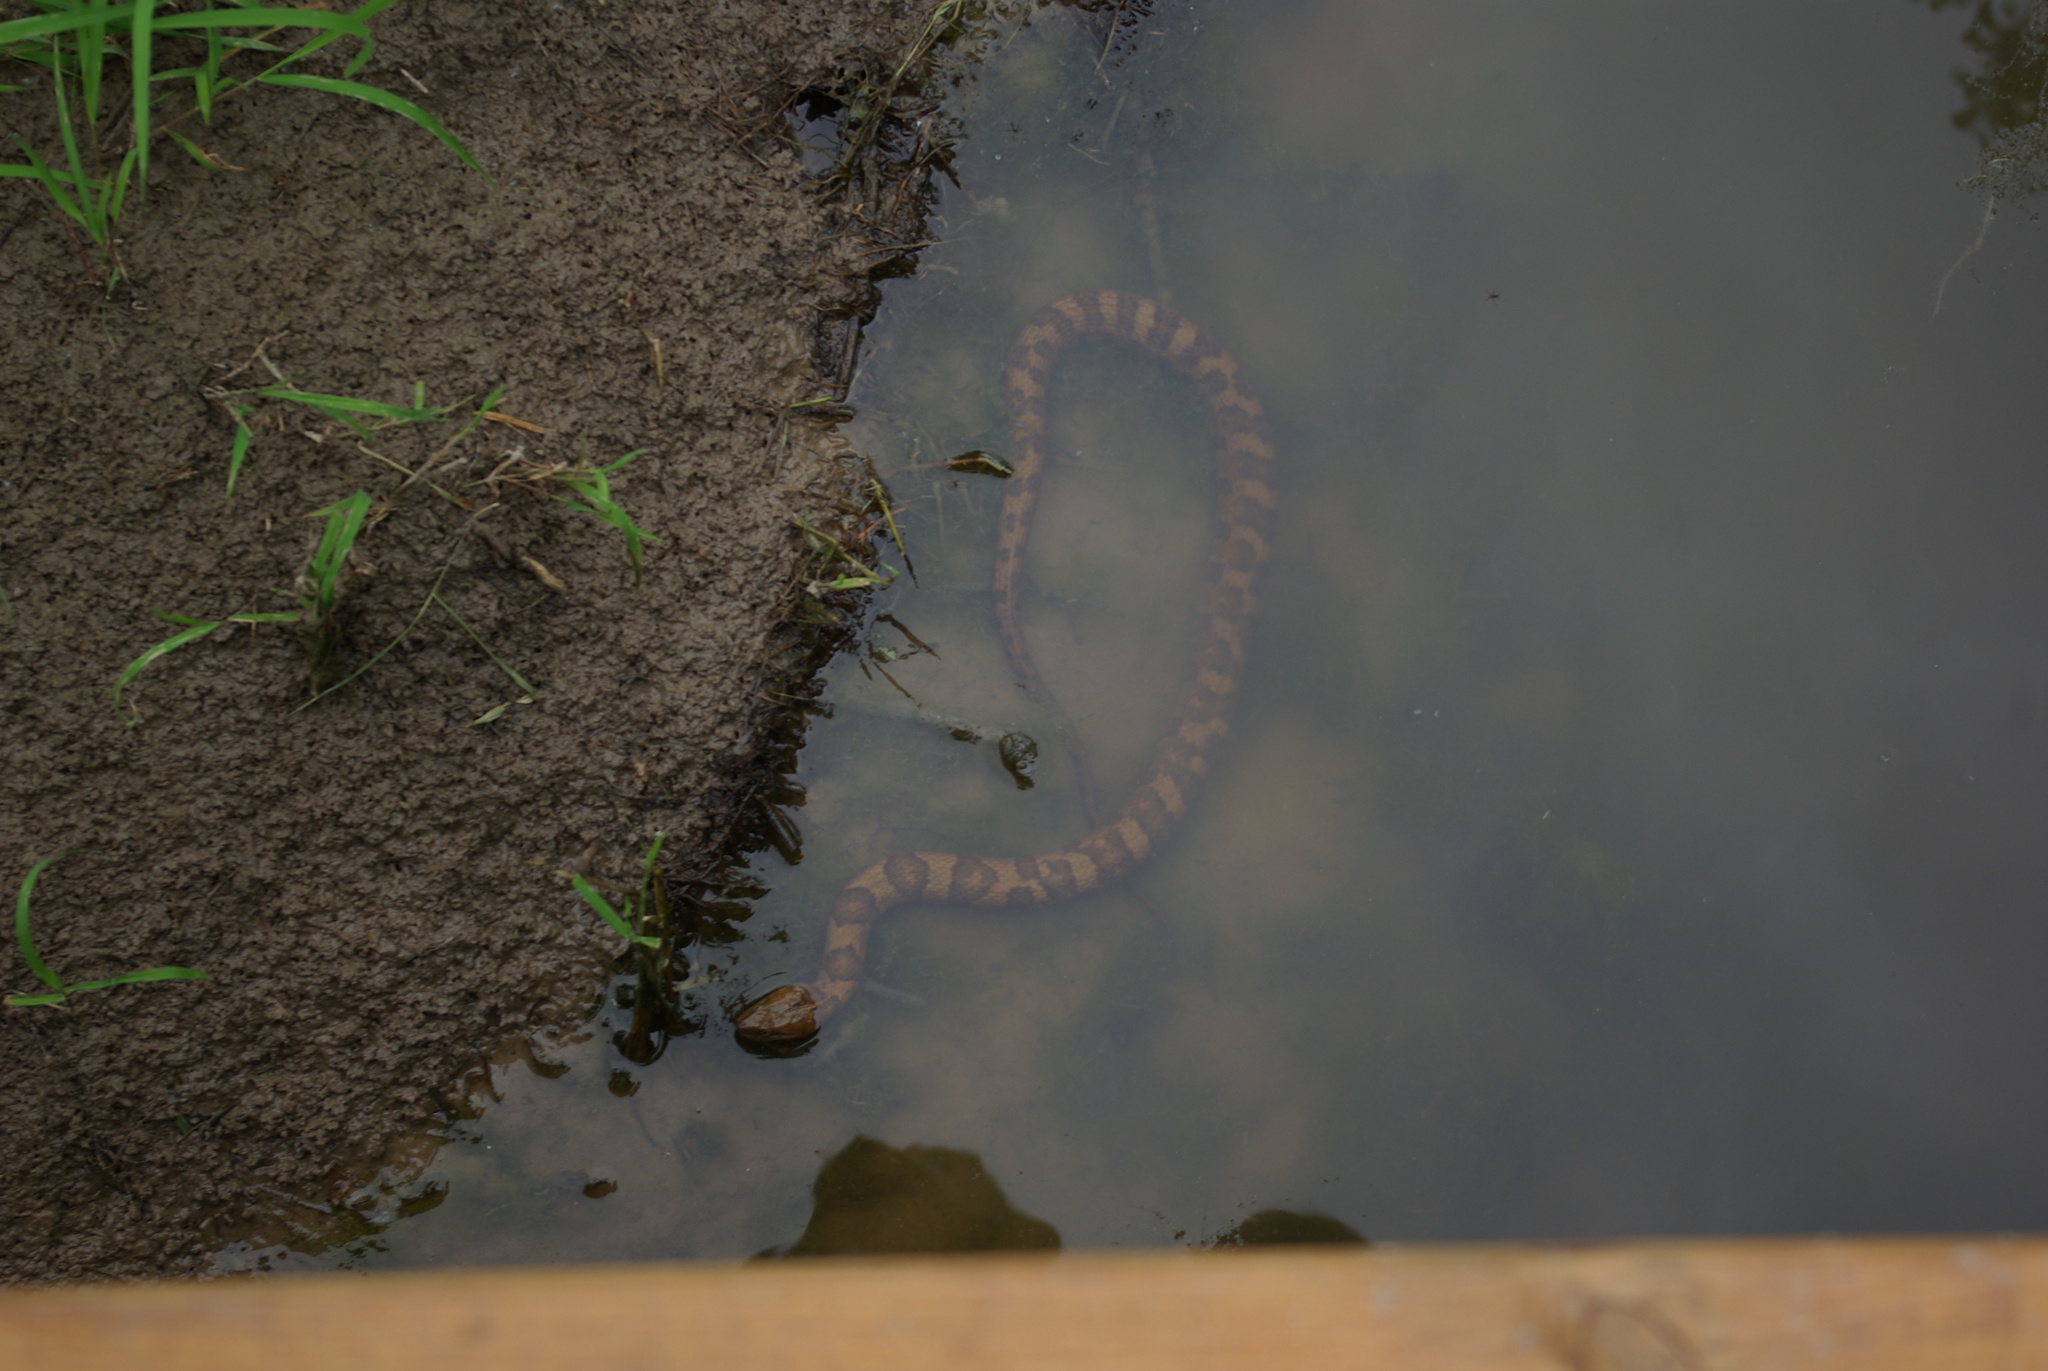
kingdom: Animalia
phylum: Chordata
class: Squamata
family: Colubridae
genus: Nerodia
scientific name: Nerodia sipedon
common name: Northern water snake
